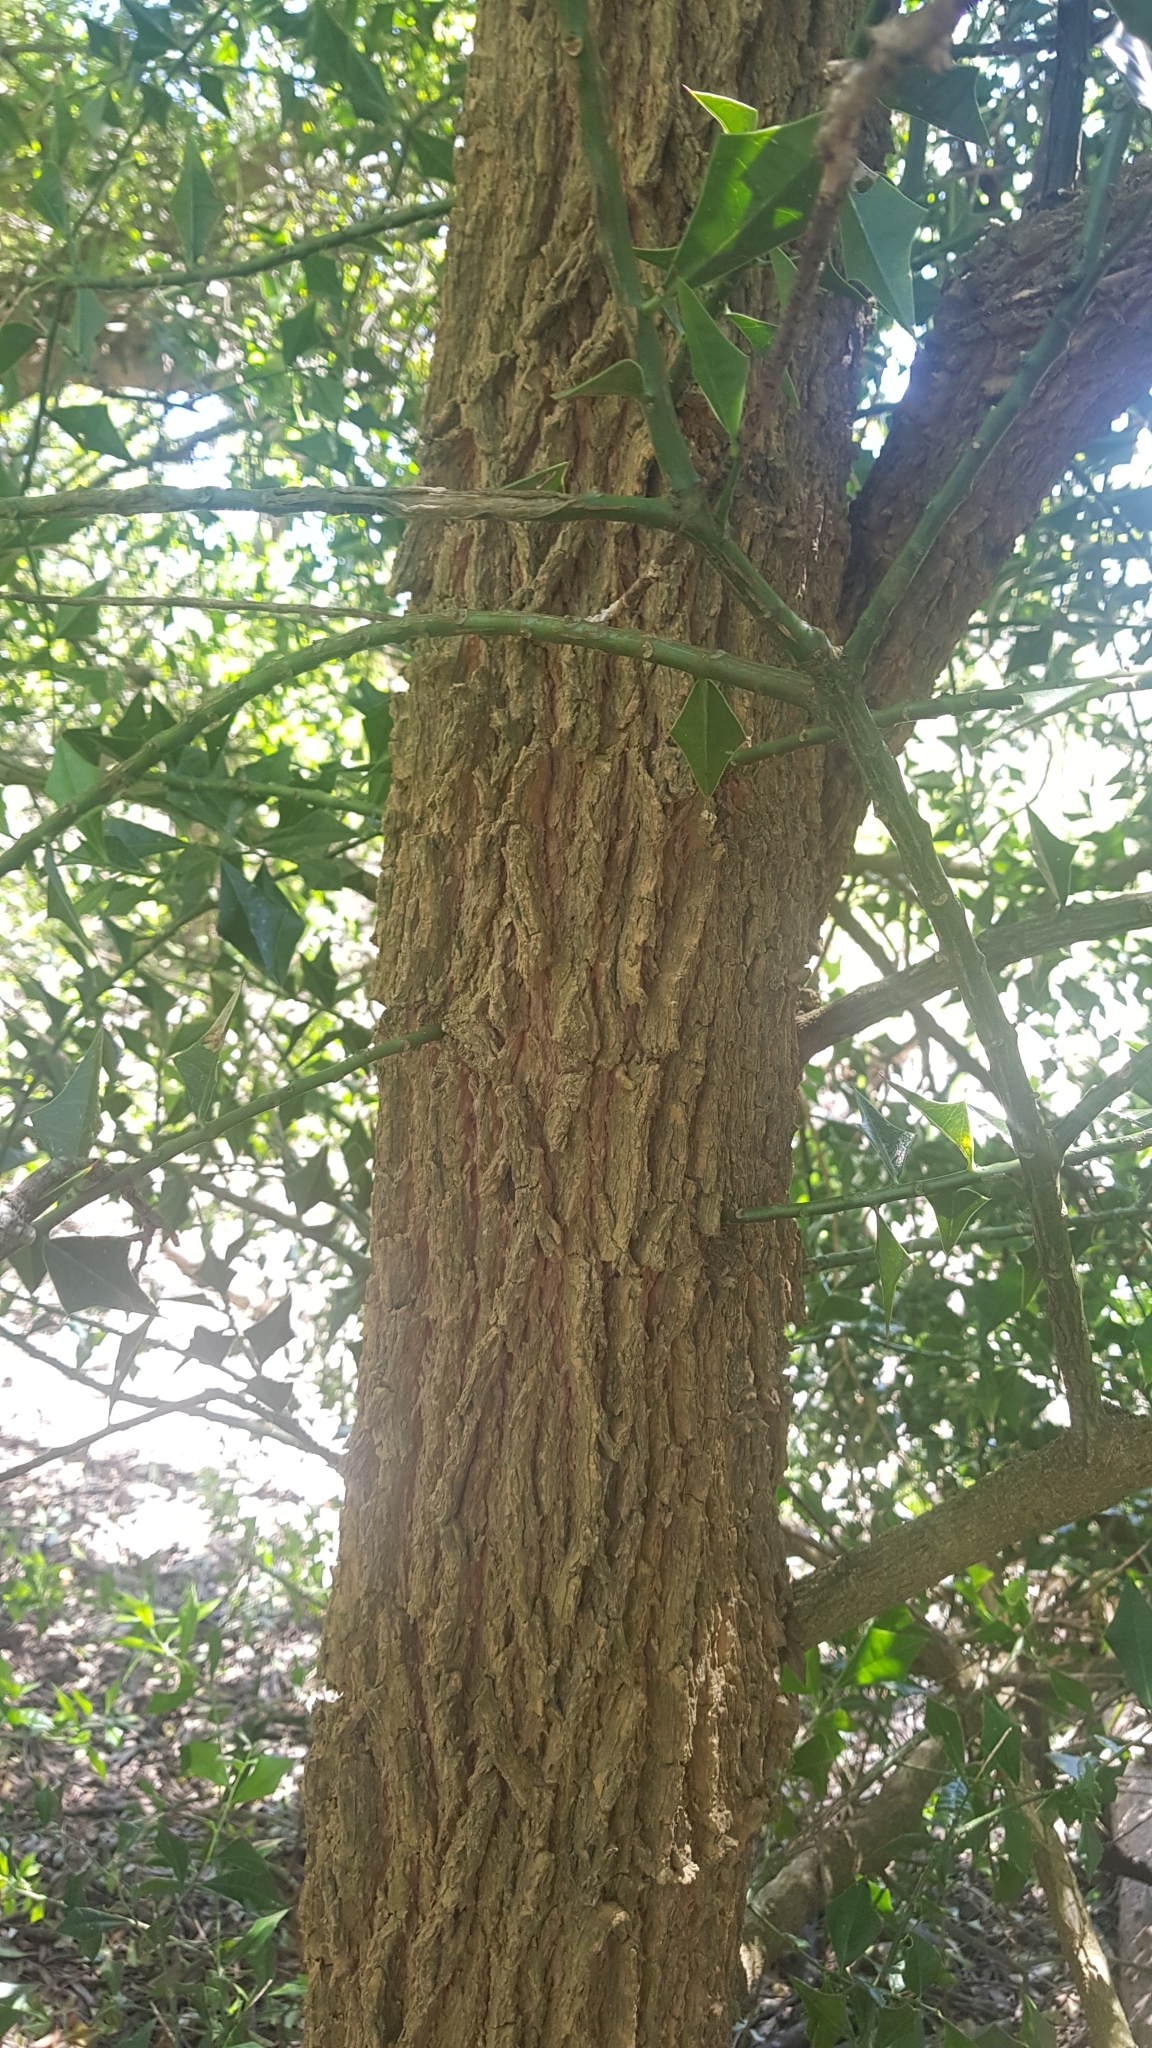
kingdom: Plantae
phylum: Tracheophyta
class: Magnoliopsida
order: Santalales
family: Cervantesiaceae
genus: Jodina
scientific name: Jodina rhombifolia
